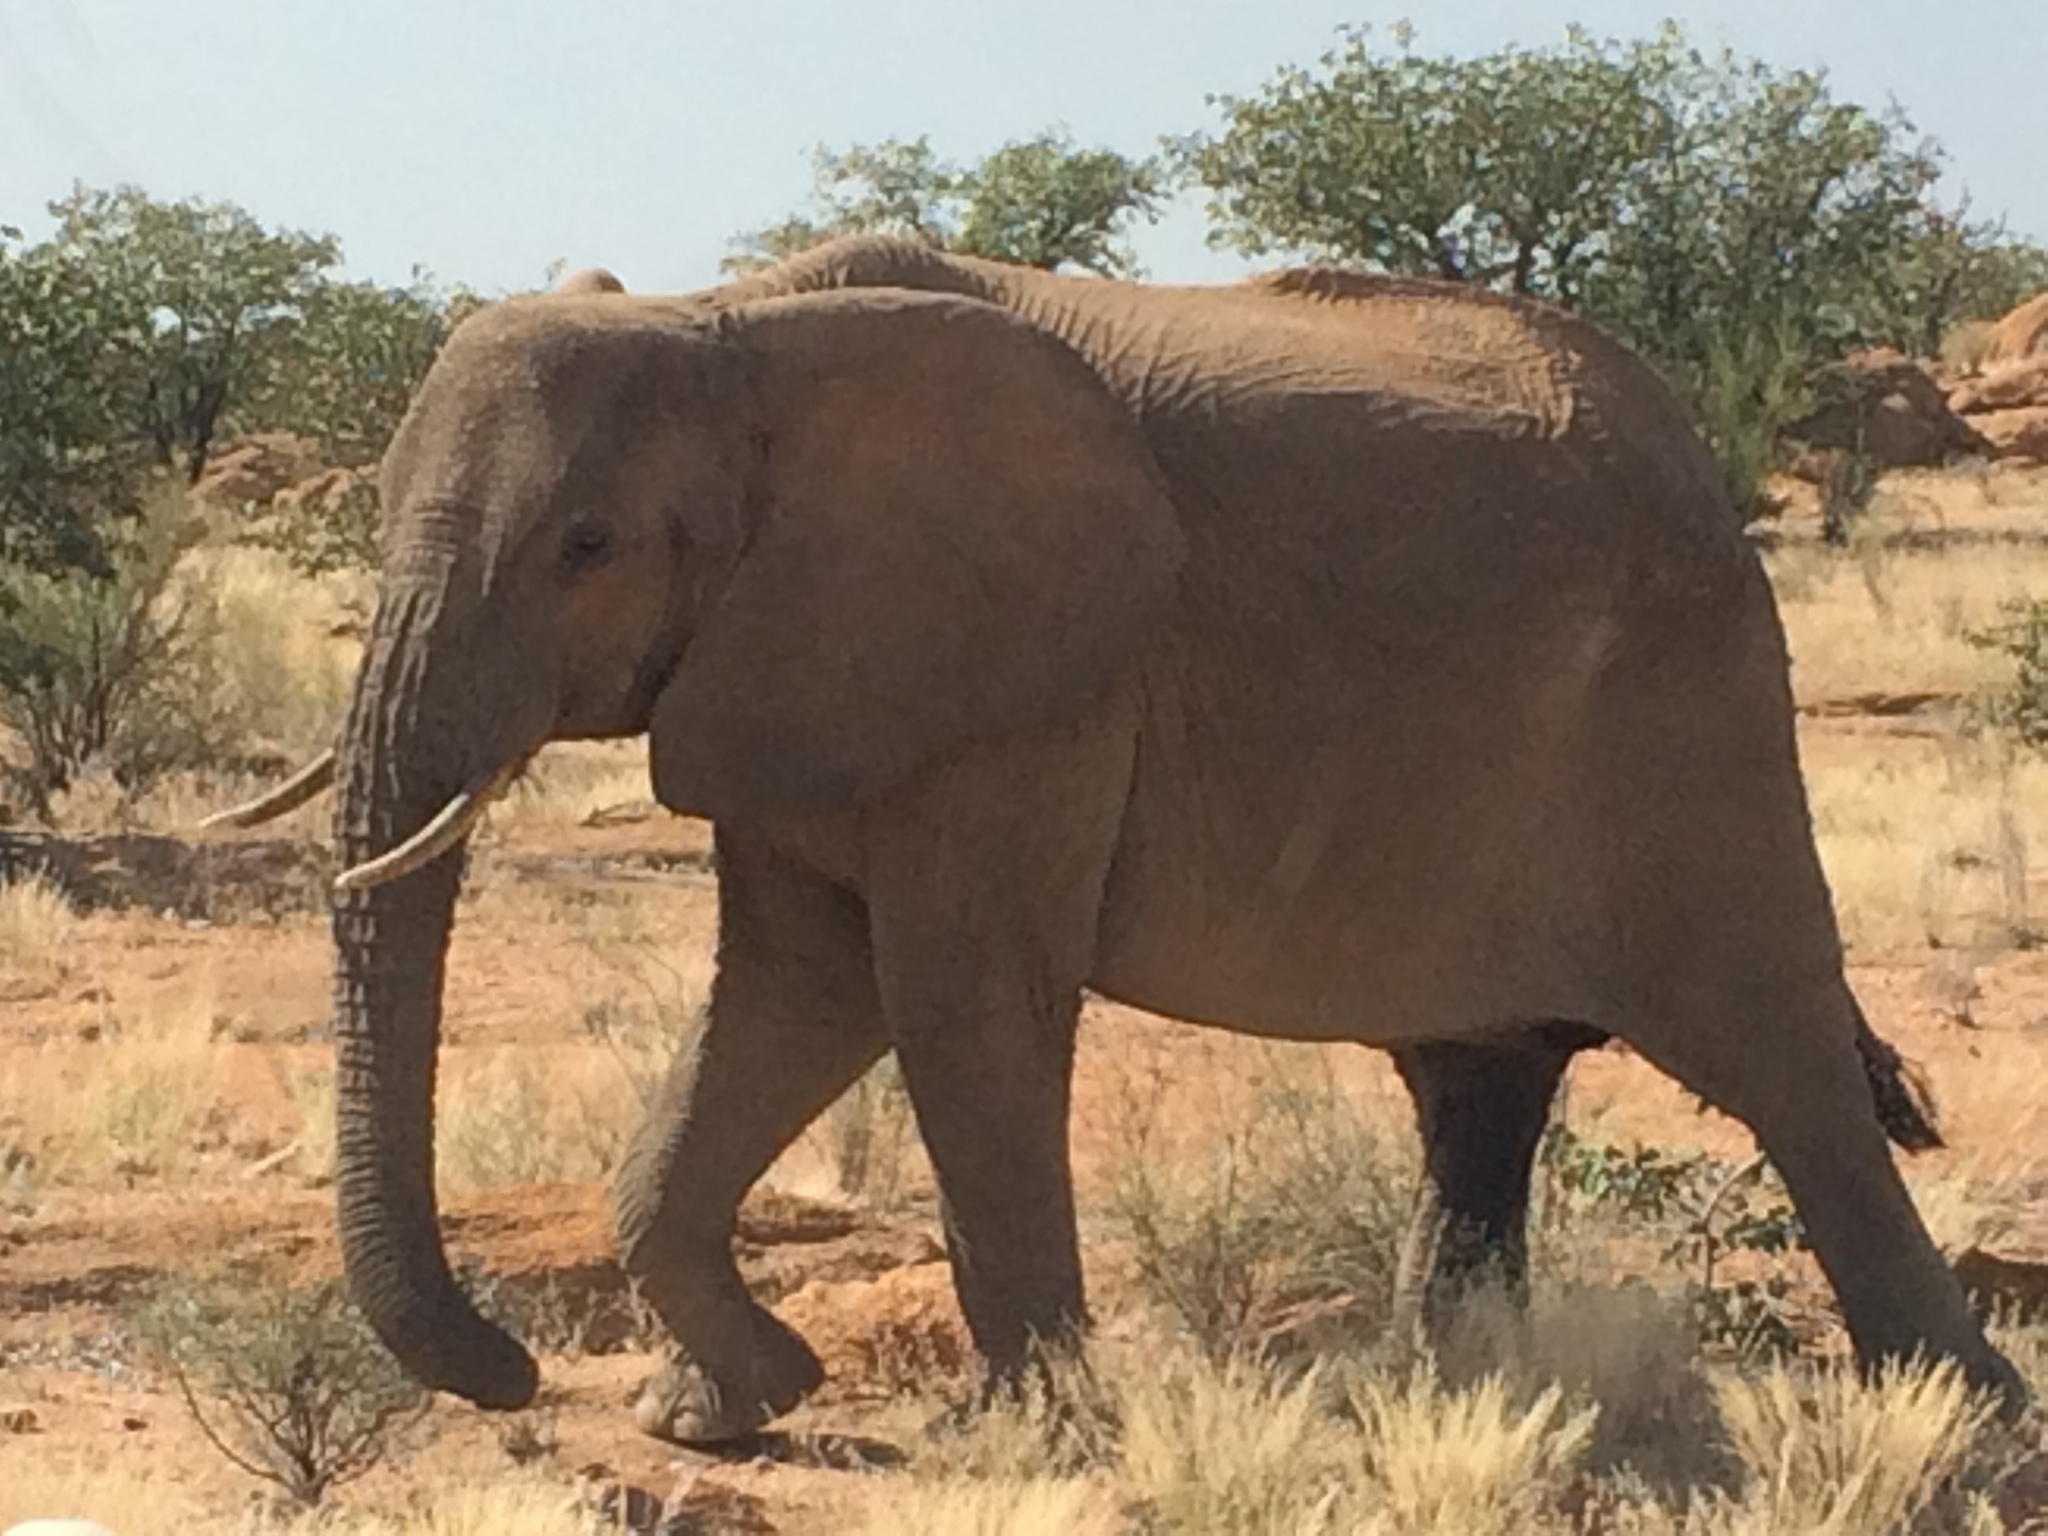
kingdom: Animalia
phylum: Chordata
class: Mammalia
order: Proboscidea
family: Elephantidae
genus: Loxodonta
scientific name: Loxodonta africana
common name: African elephant
